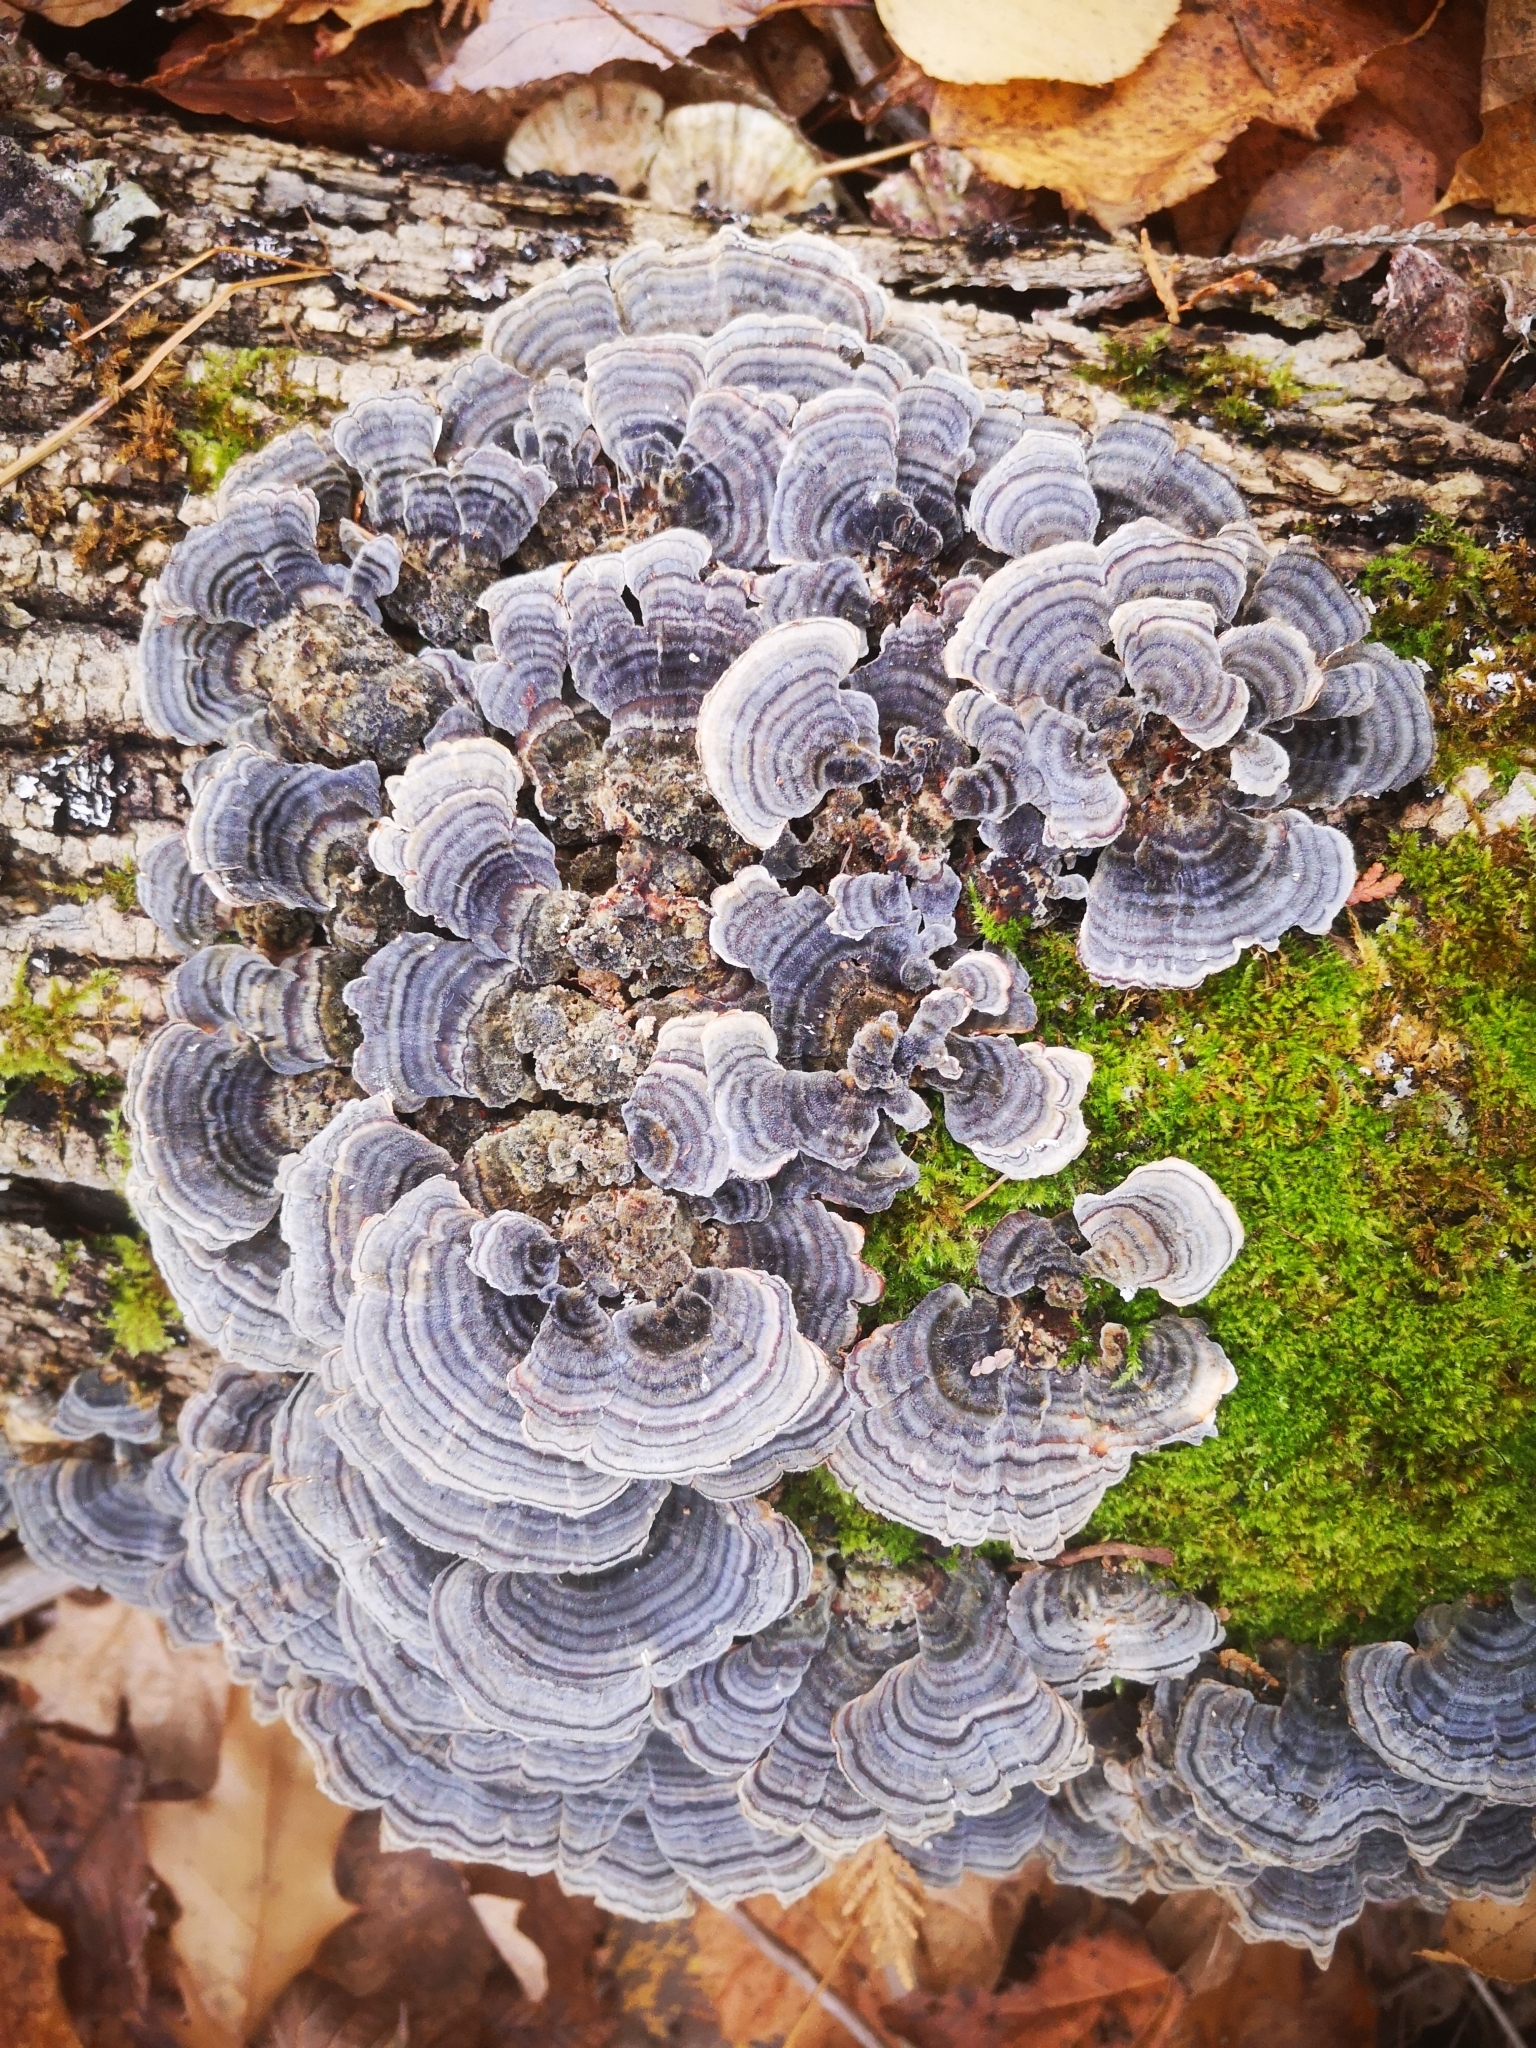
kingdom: Fungi
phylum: Basidiomycota
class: Agaricomycetes
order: Polyporales
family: Polyporaceae
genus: Trametes
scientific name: Trametes versicolor
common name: Turkeytail
